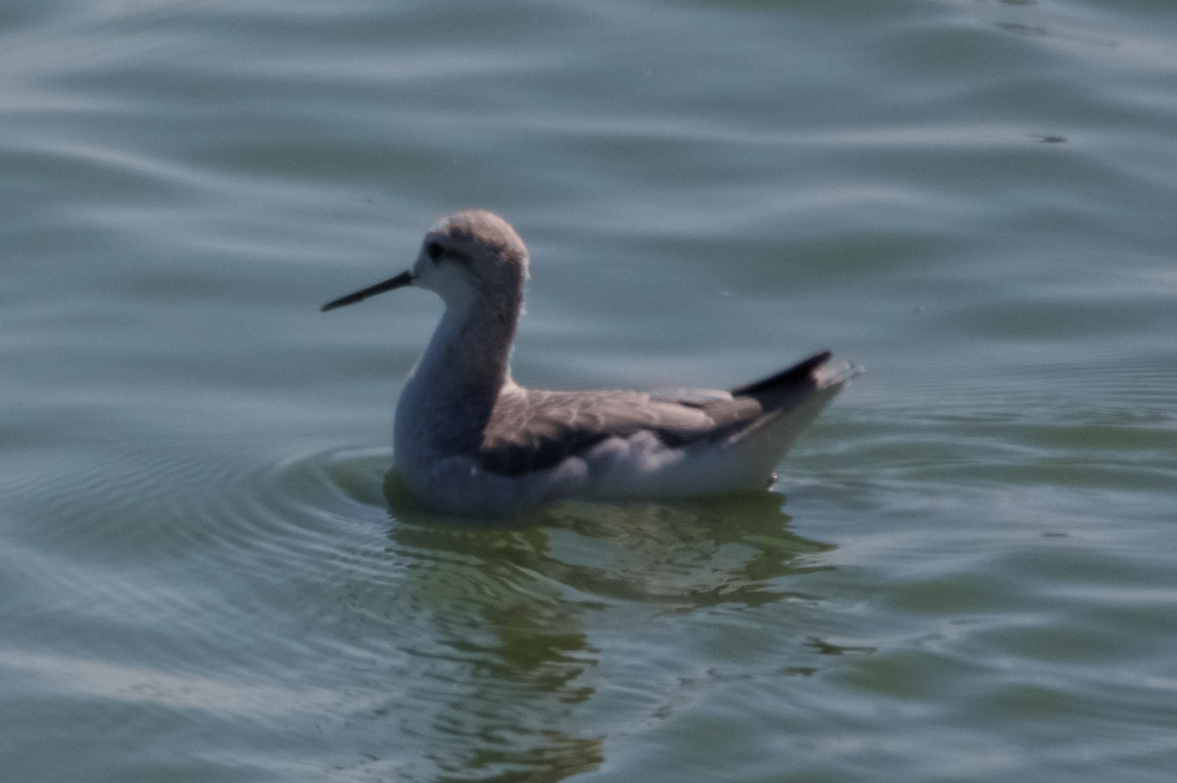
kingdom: Animalia
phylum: Chordata
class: Aves
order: Charadriiformes
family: Scolopacidae
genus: Phalaropus
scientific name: Phalaropus tricolor
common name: Wilson's phalarope
